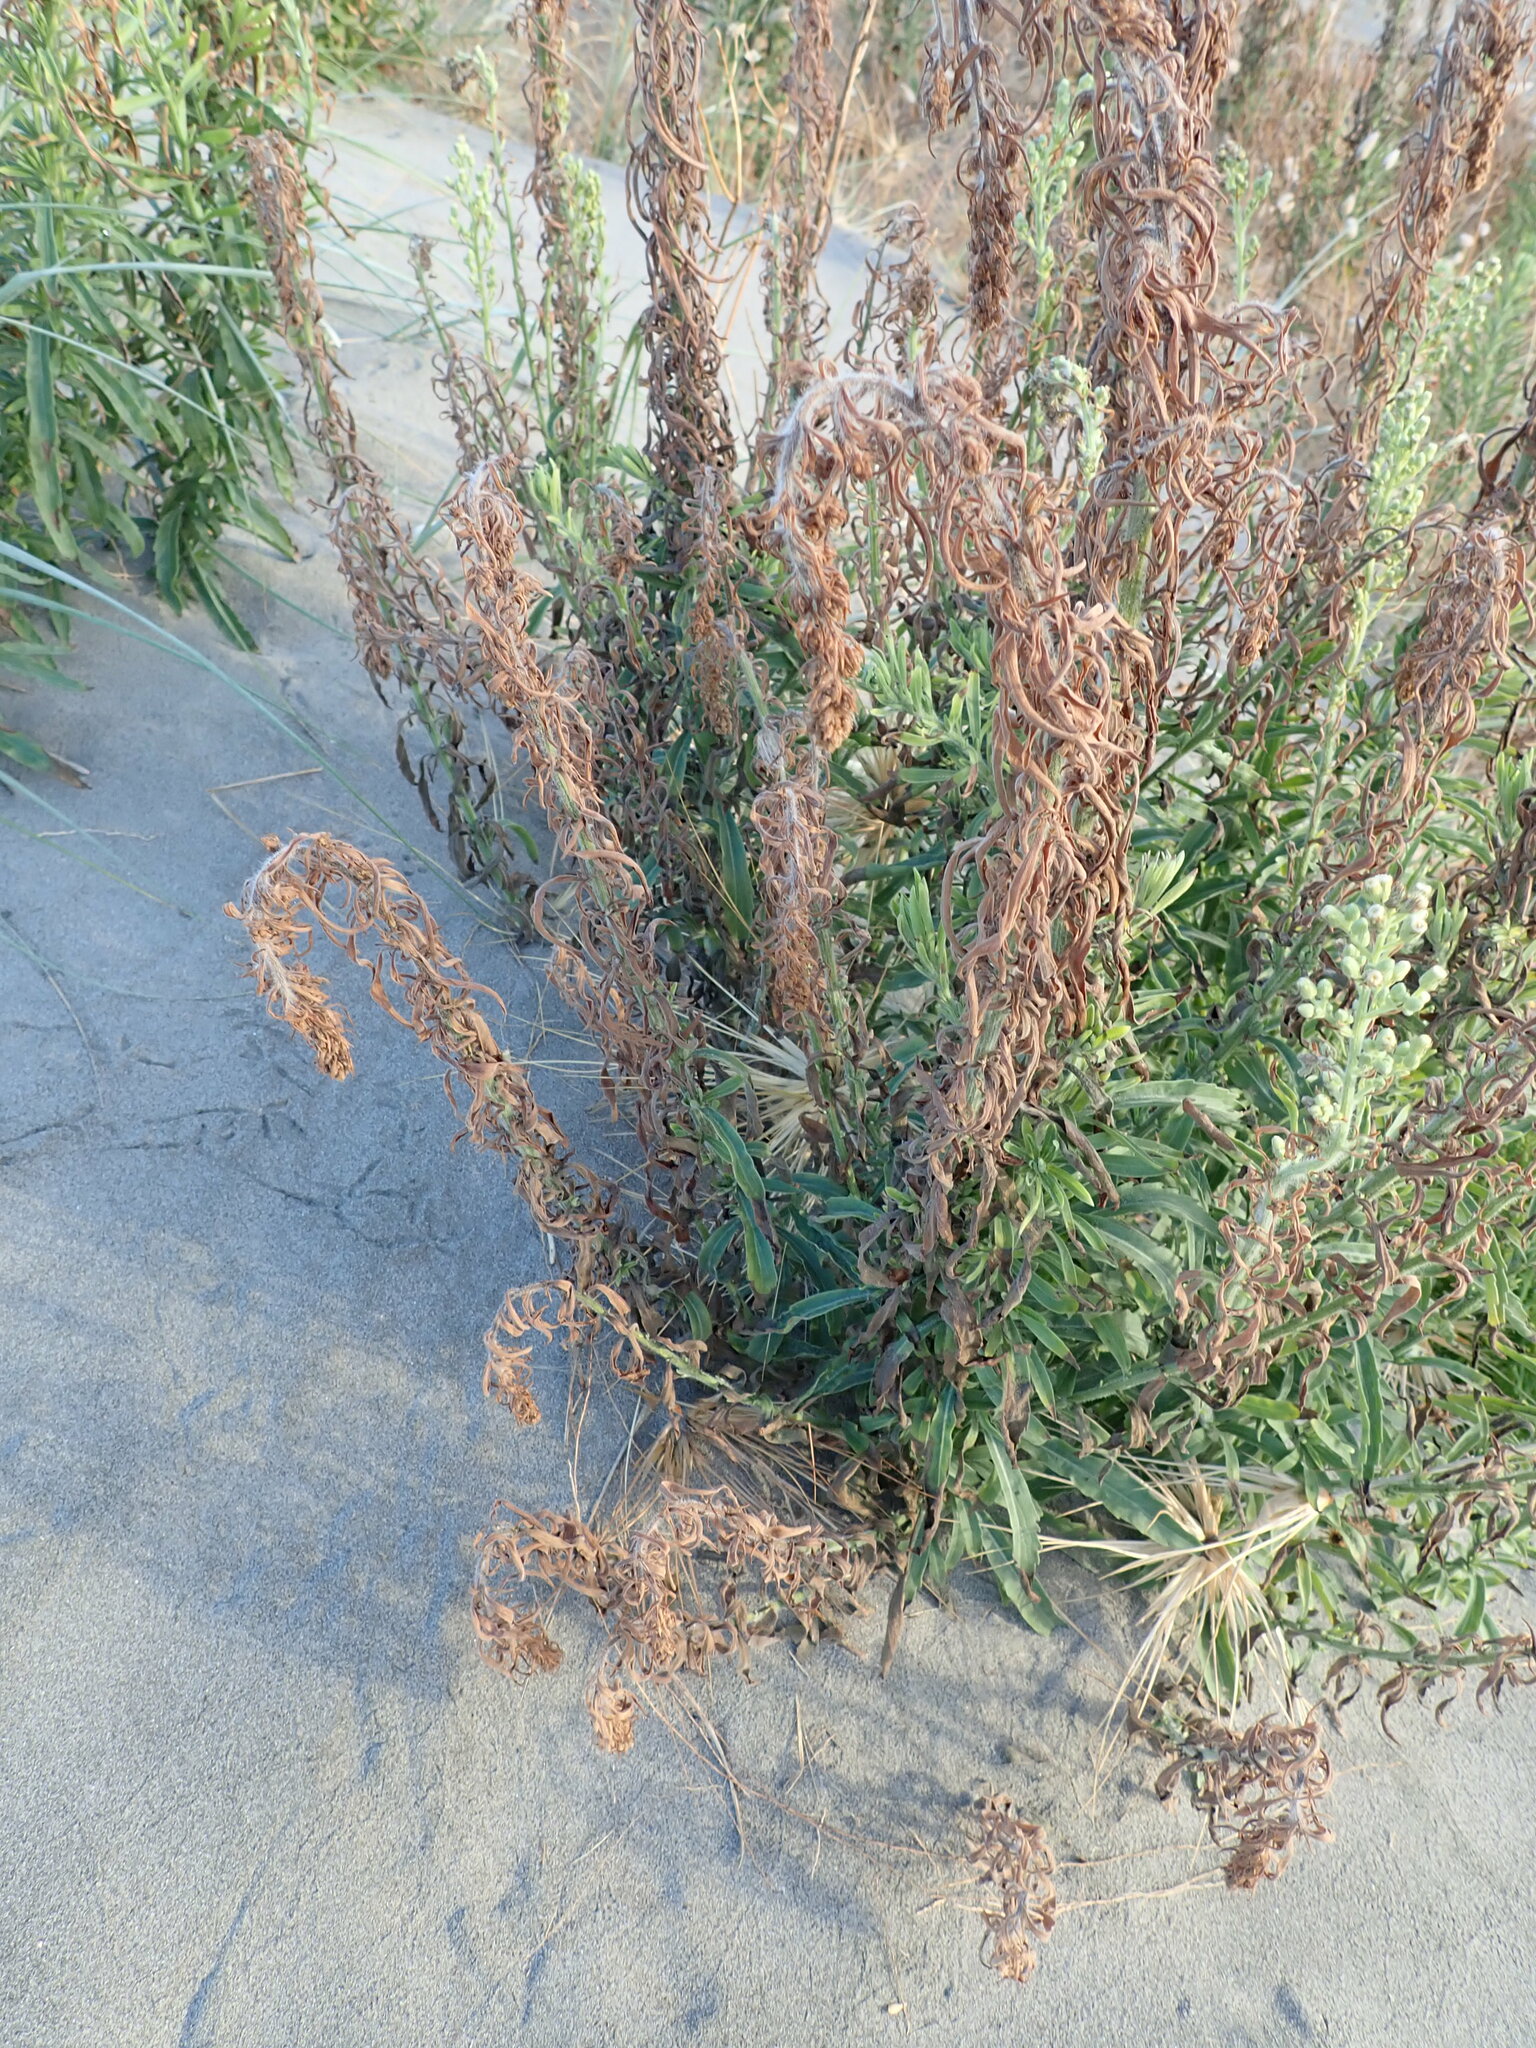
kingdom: Plantae
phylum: Tracheophyta
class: Magnoliopsida
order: Asterales
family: Asteraceae
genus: Erigeron
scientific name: Erigeron sumatrensis
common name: Daisy
